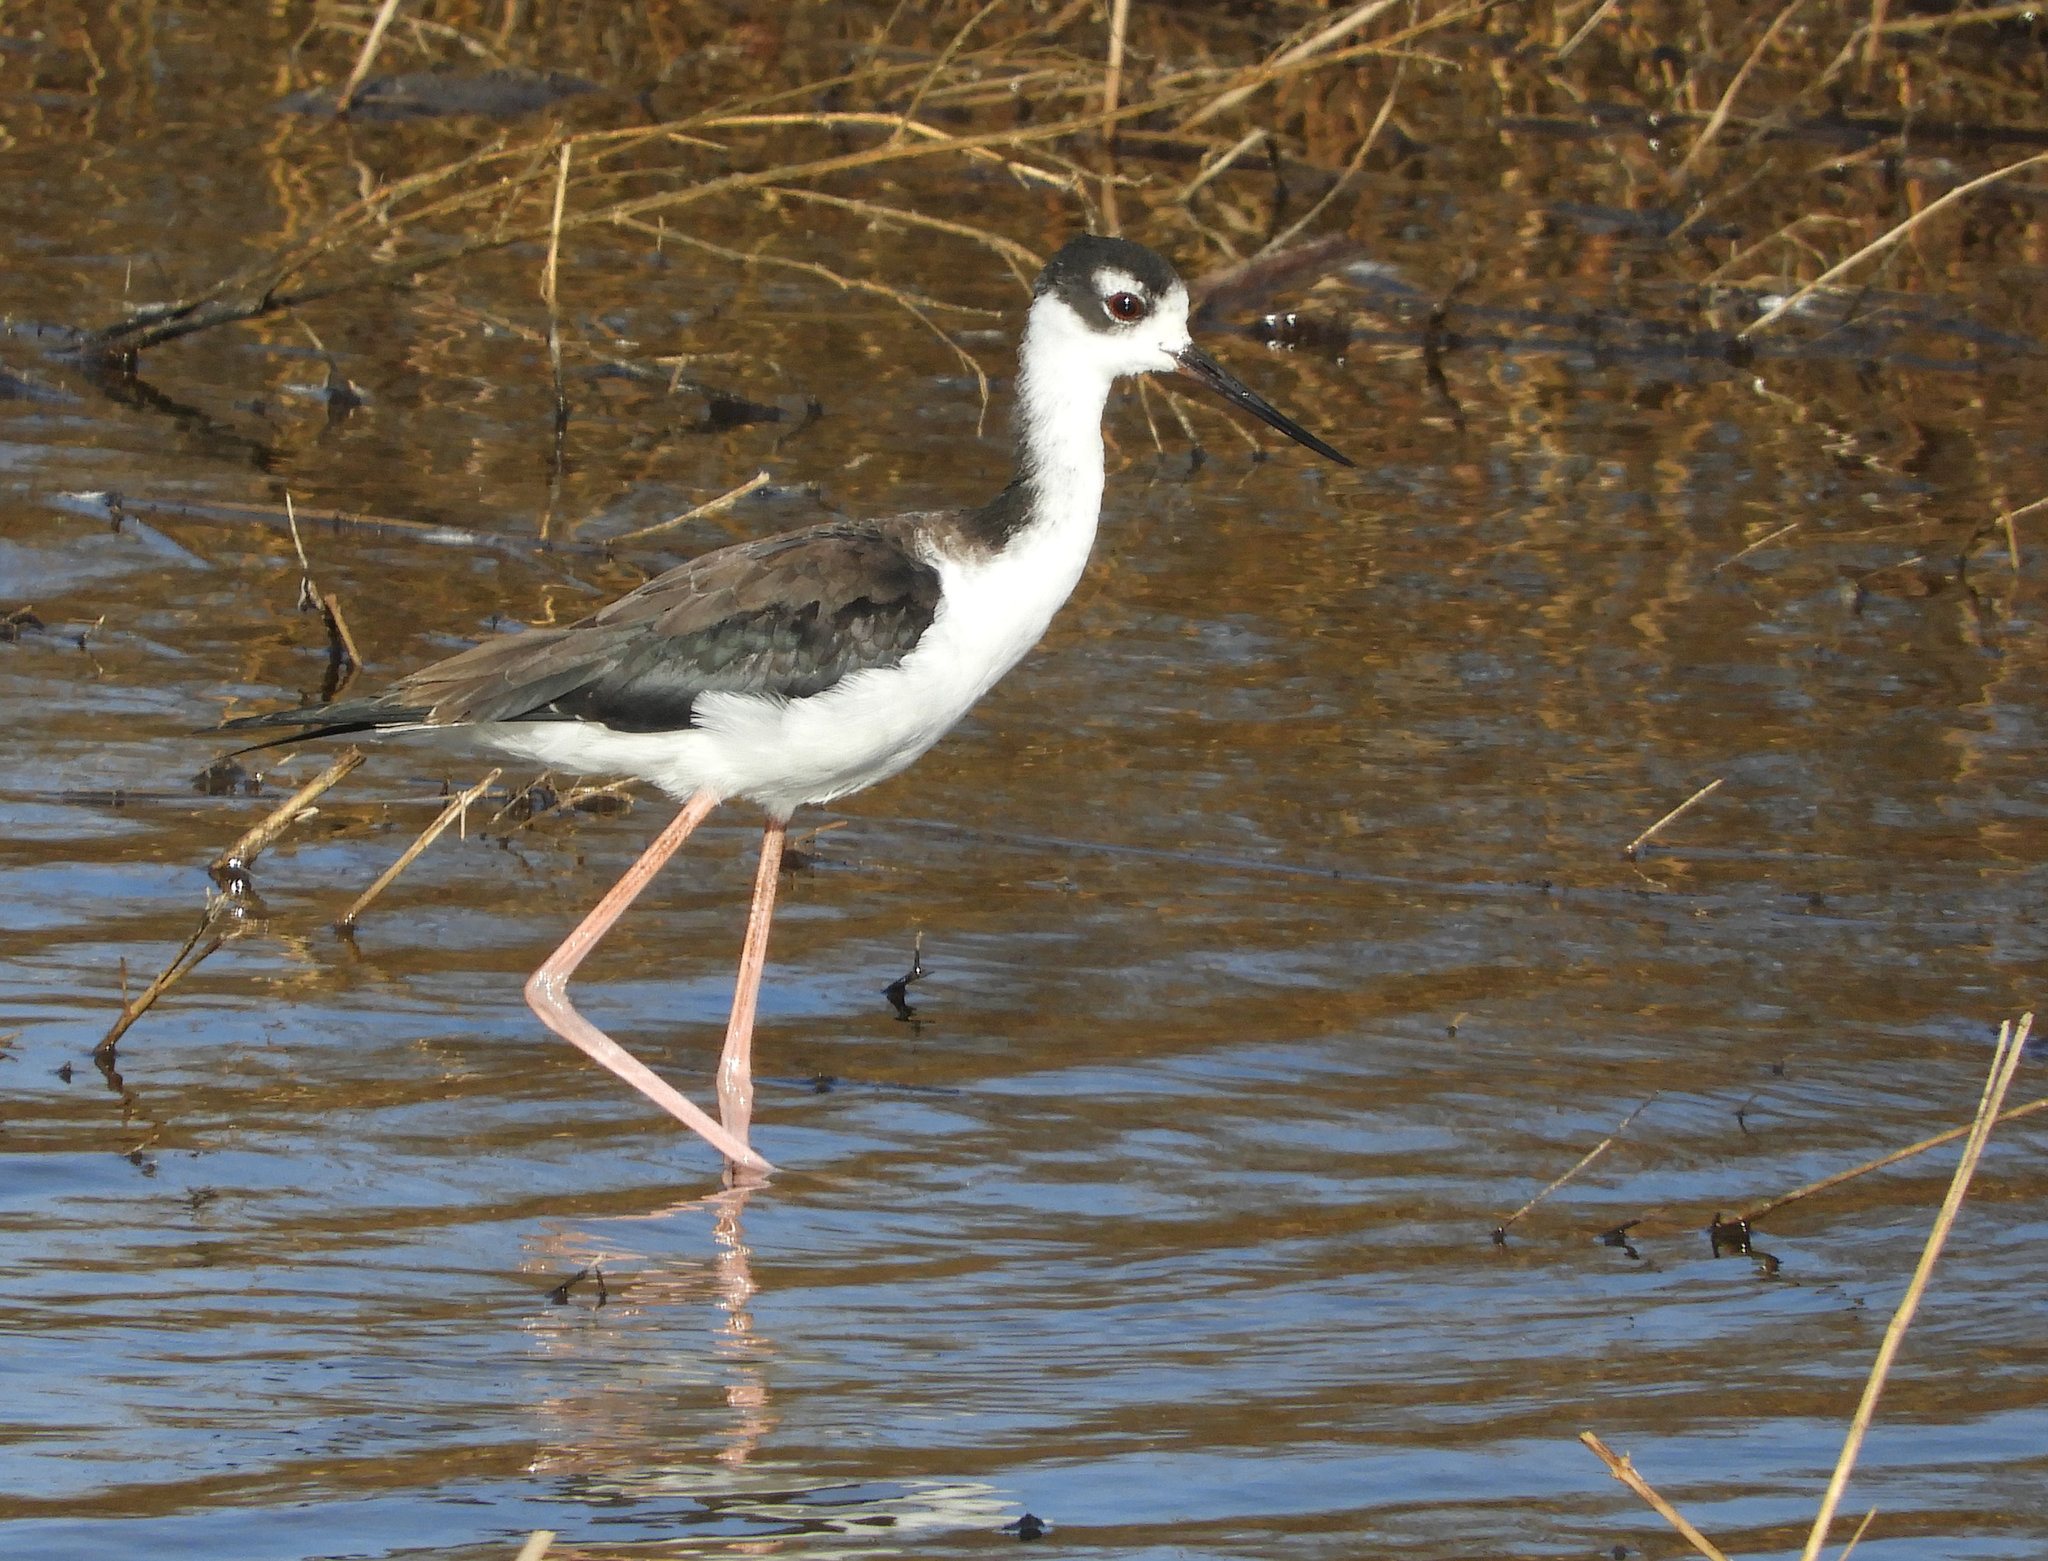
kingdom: Animalia
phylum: Chordata
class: Aves
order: Charadriiformes
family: Recurvirostridae
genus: Himantopus
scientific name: Himantopus mexicanus
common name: Black-necked stilt
